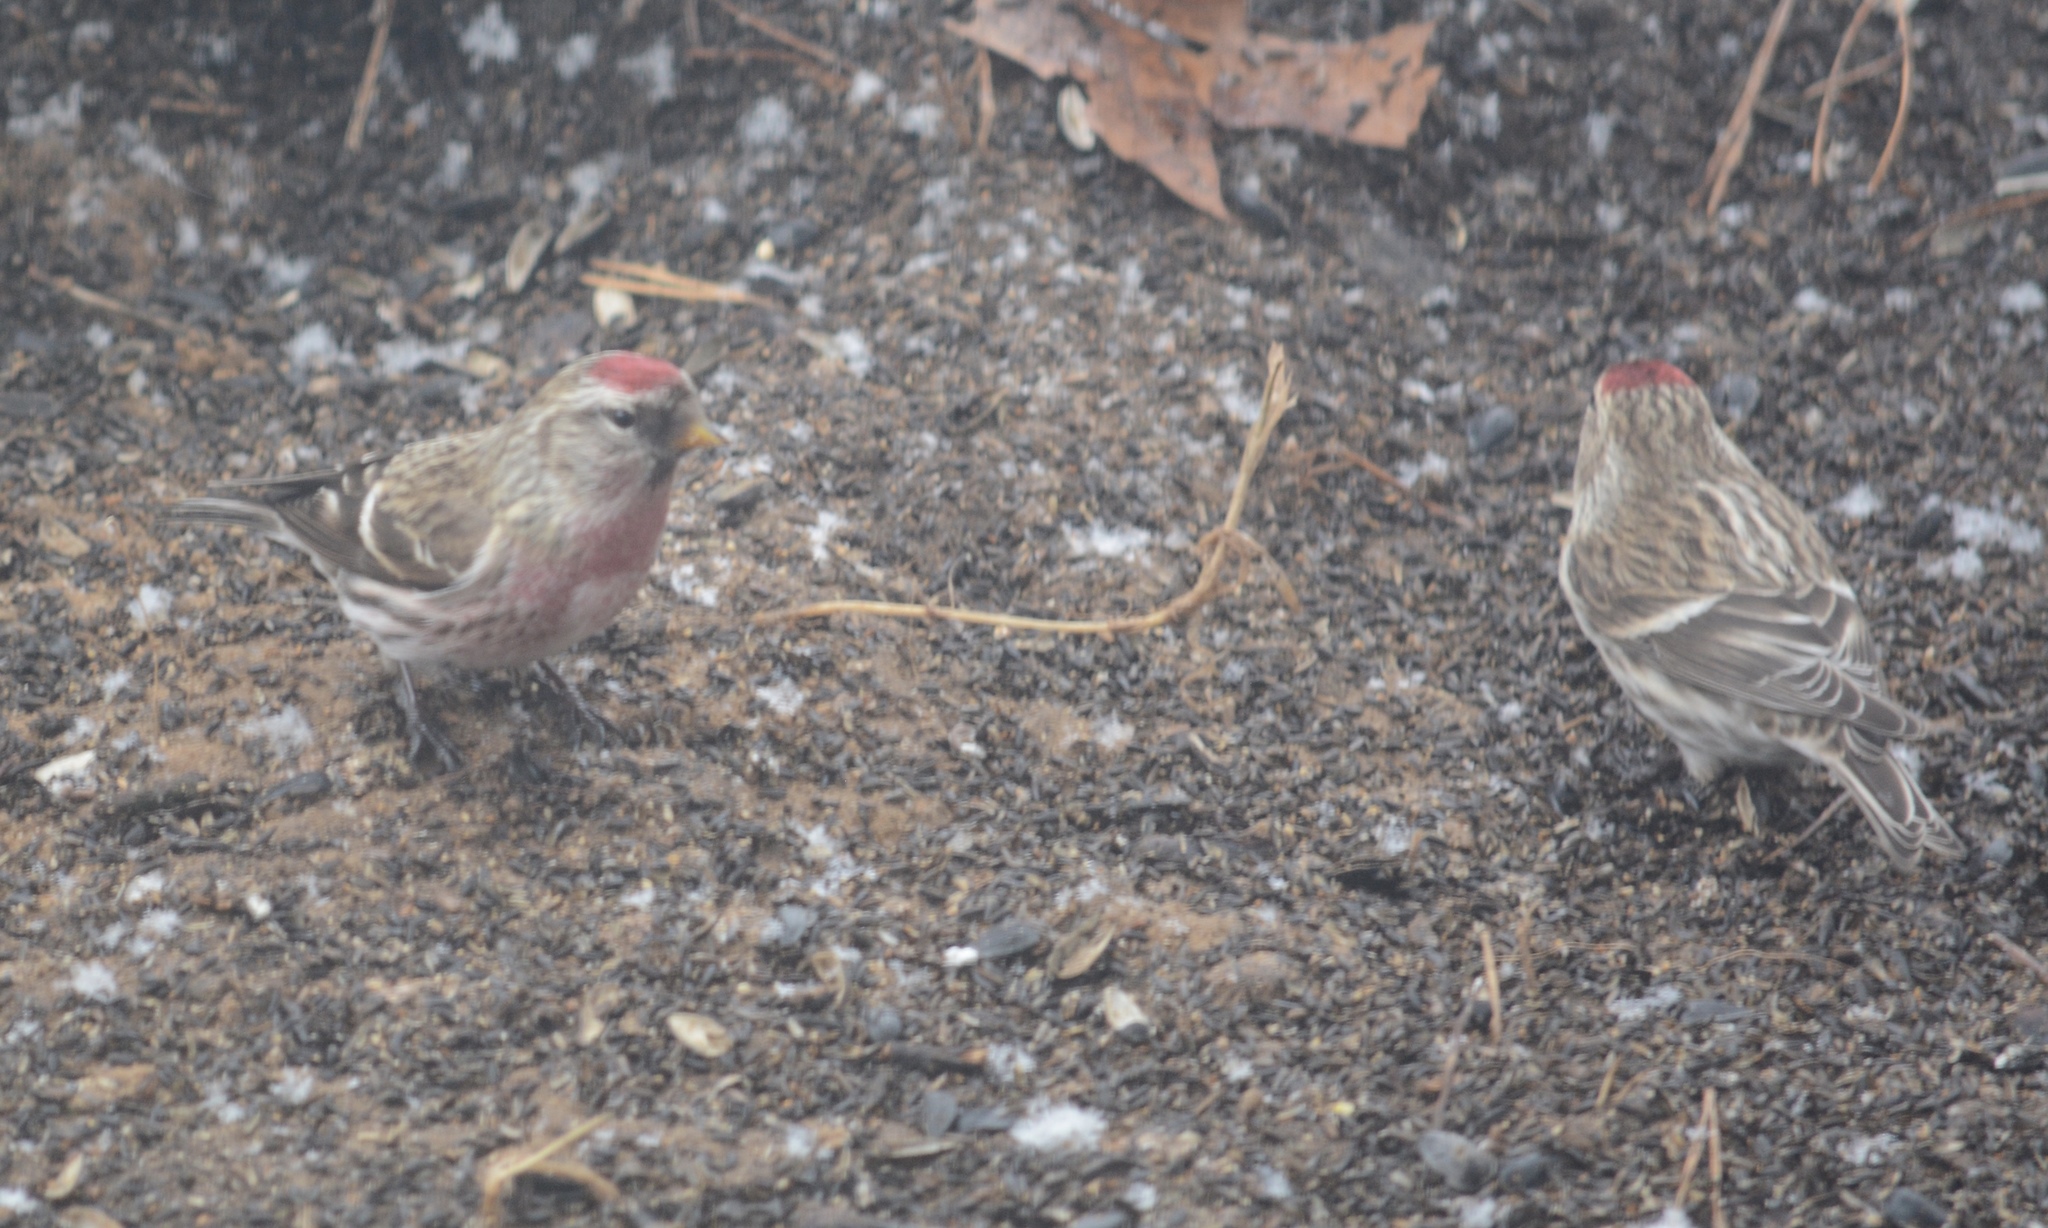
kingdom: Animalia
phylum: Chordata
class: Aves
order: Passeriformes
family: Fringillidae
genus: Acanthis
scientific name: Acanthis flammea
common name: Common redpoll
